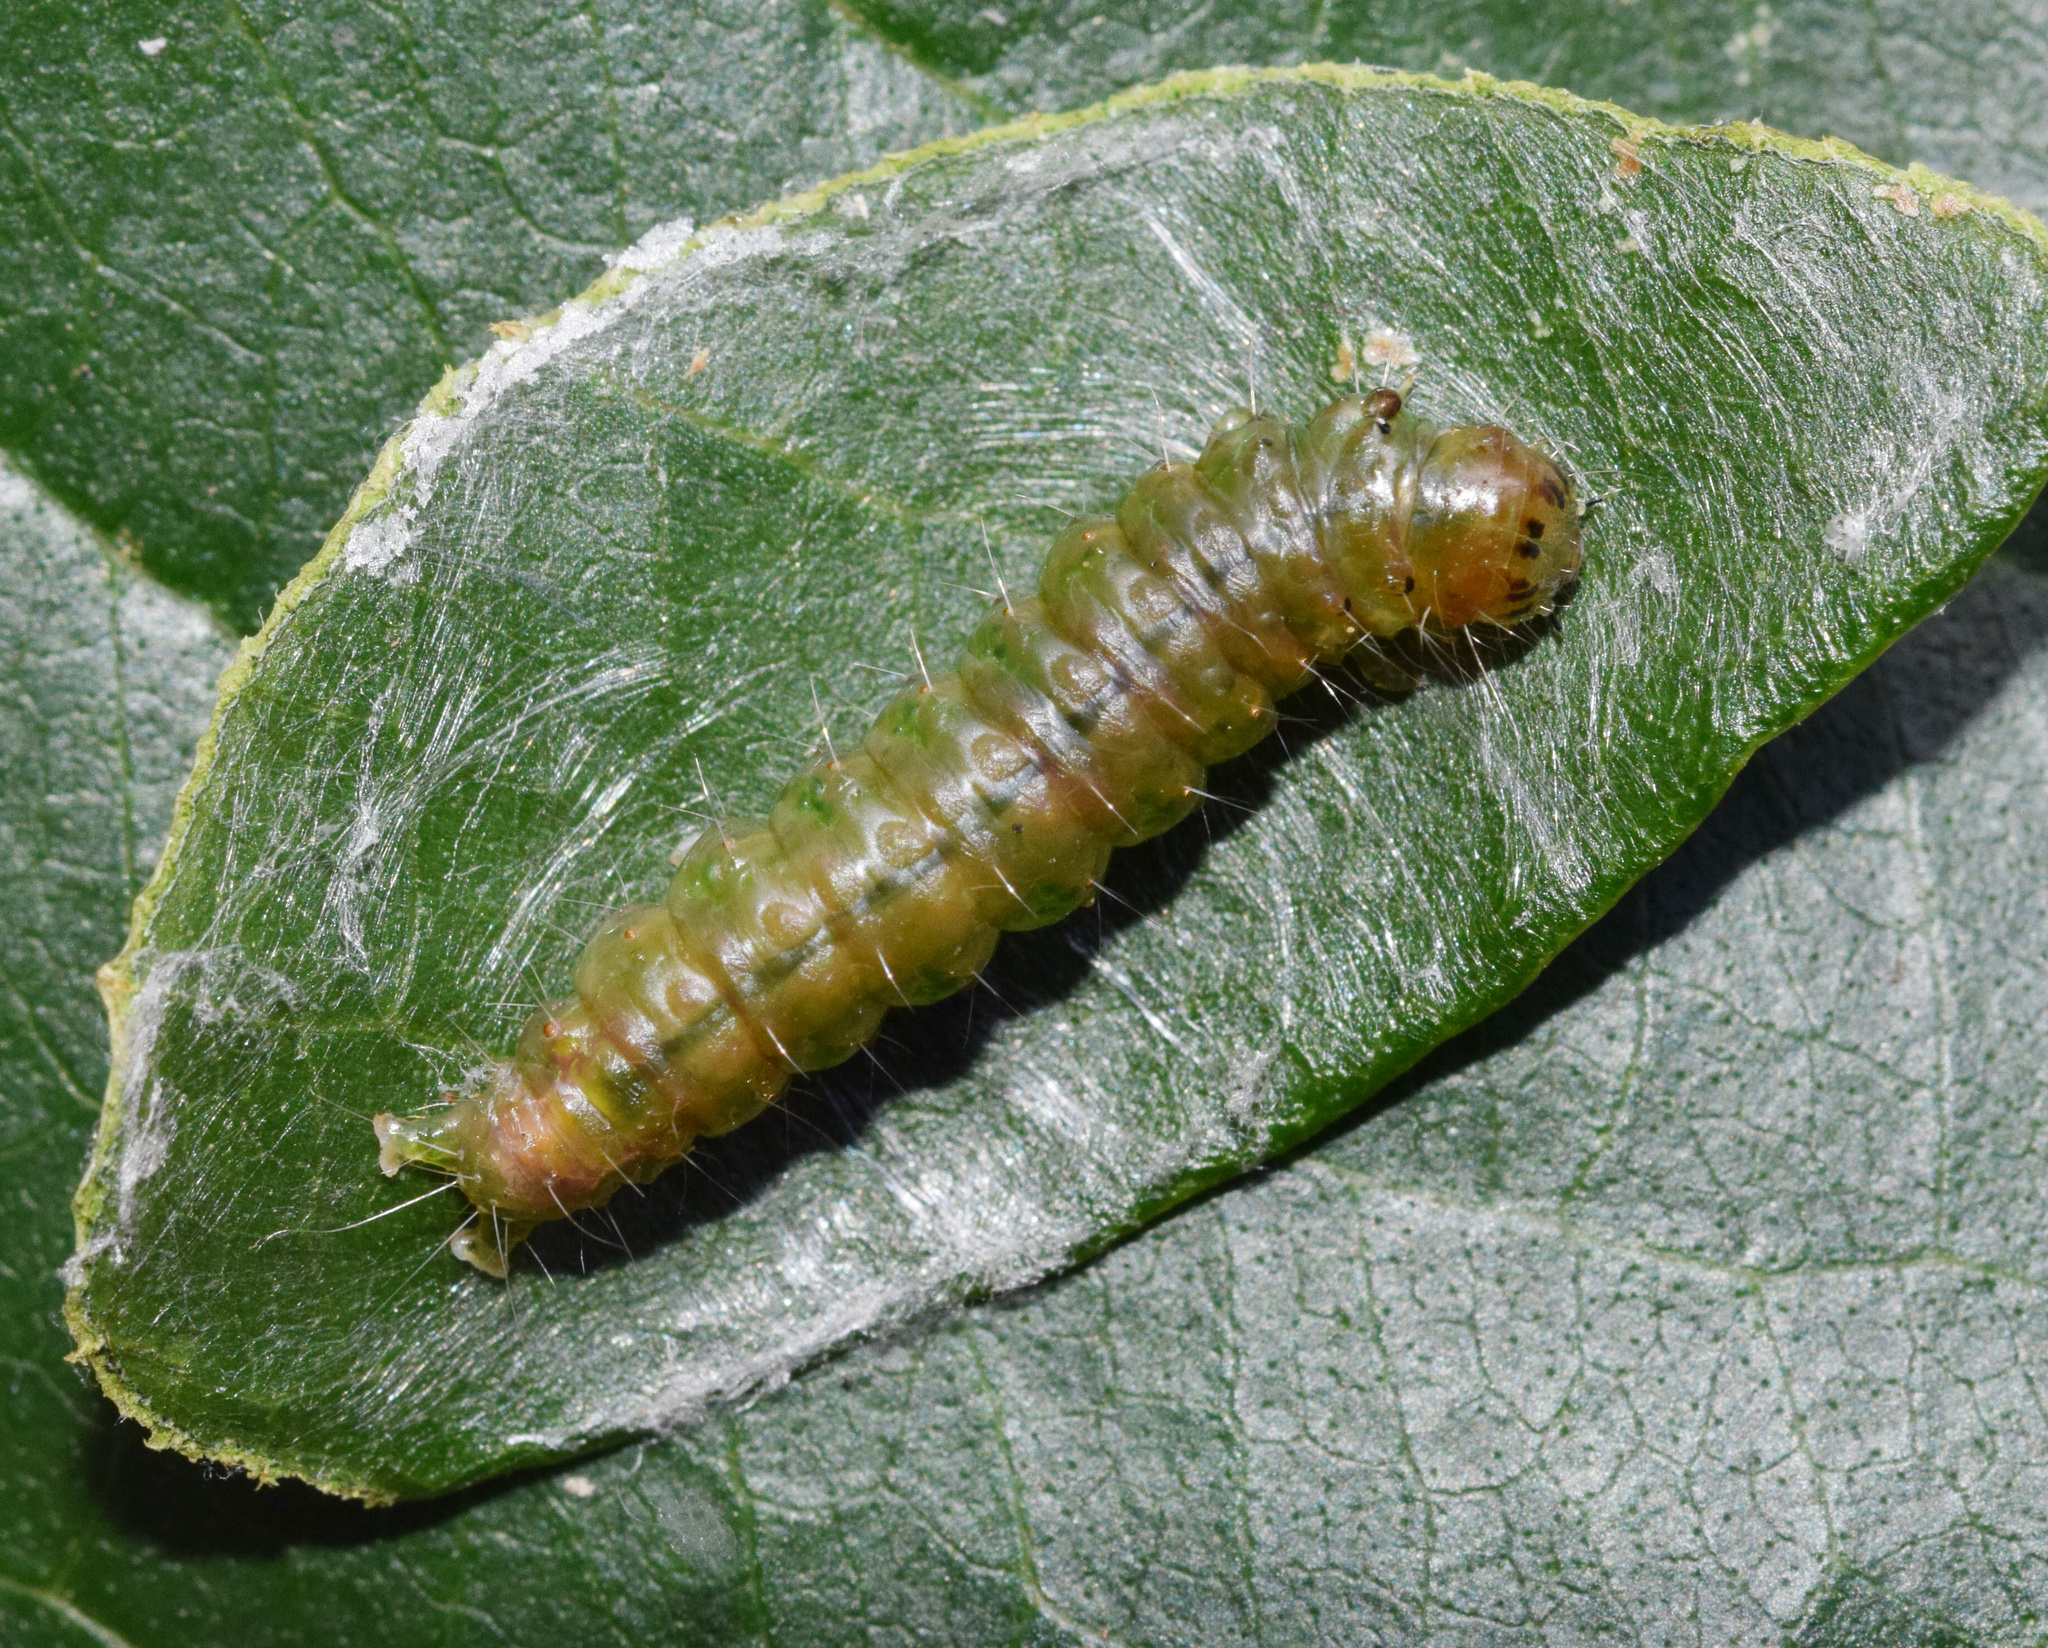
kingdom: Animalia
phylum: Arthropoda
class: Insecta
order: Lepidoptera
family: Crambidae
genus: Chalcidoptera
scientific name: Chalcidoptera rufilinealis
